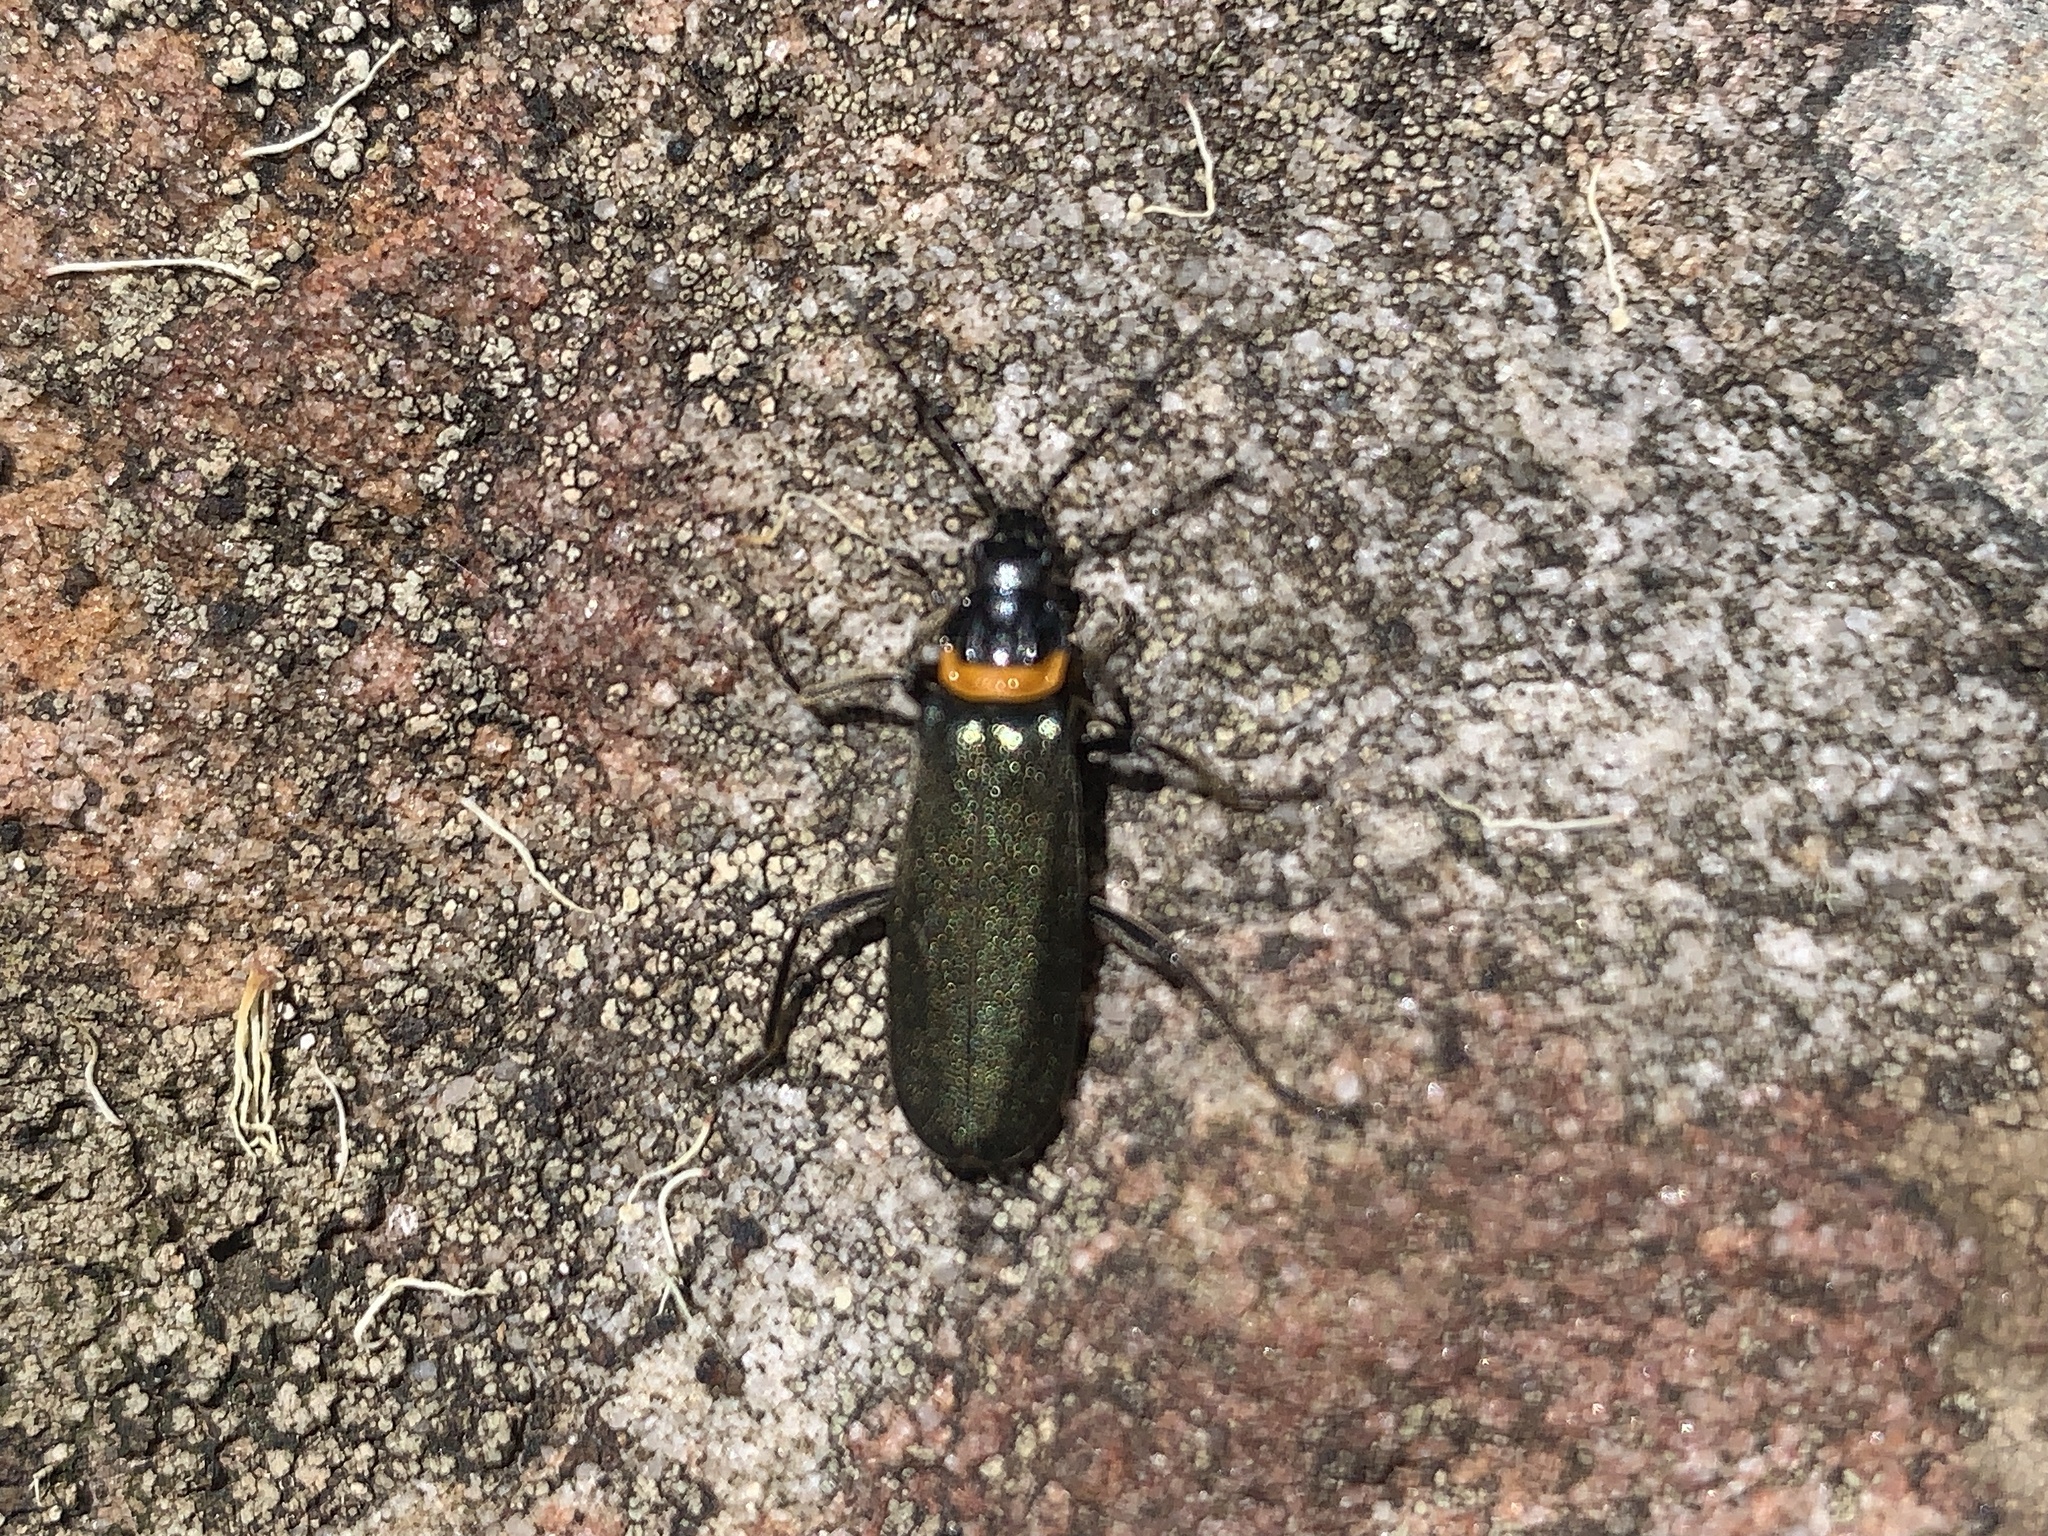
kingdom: Animalia
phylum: Arthropoda
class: Insecta
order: Coleoptera
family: Cantharidae
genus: Chauliognathus
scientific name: Chauliognathus
